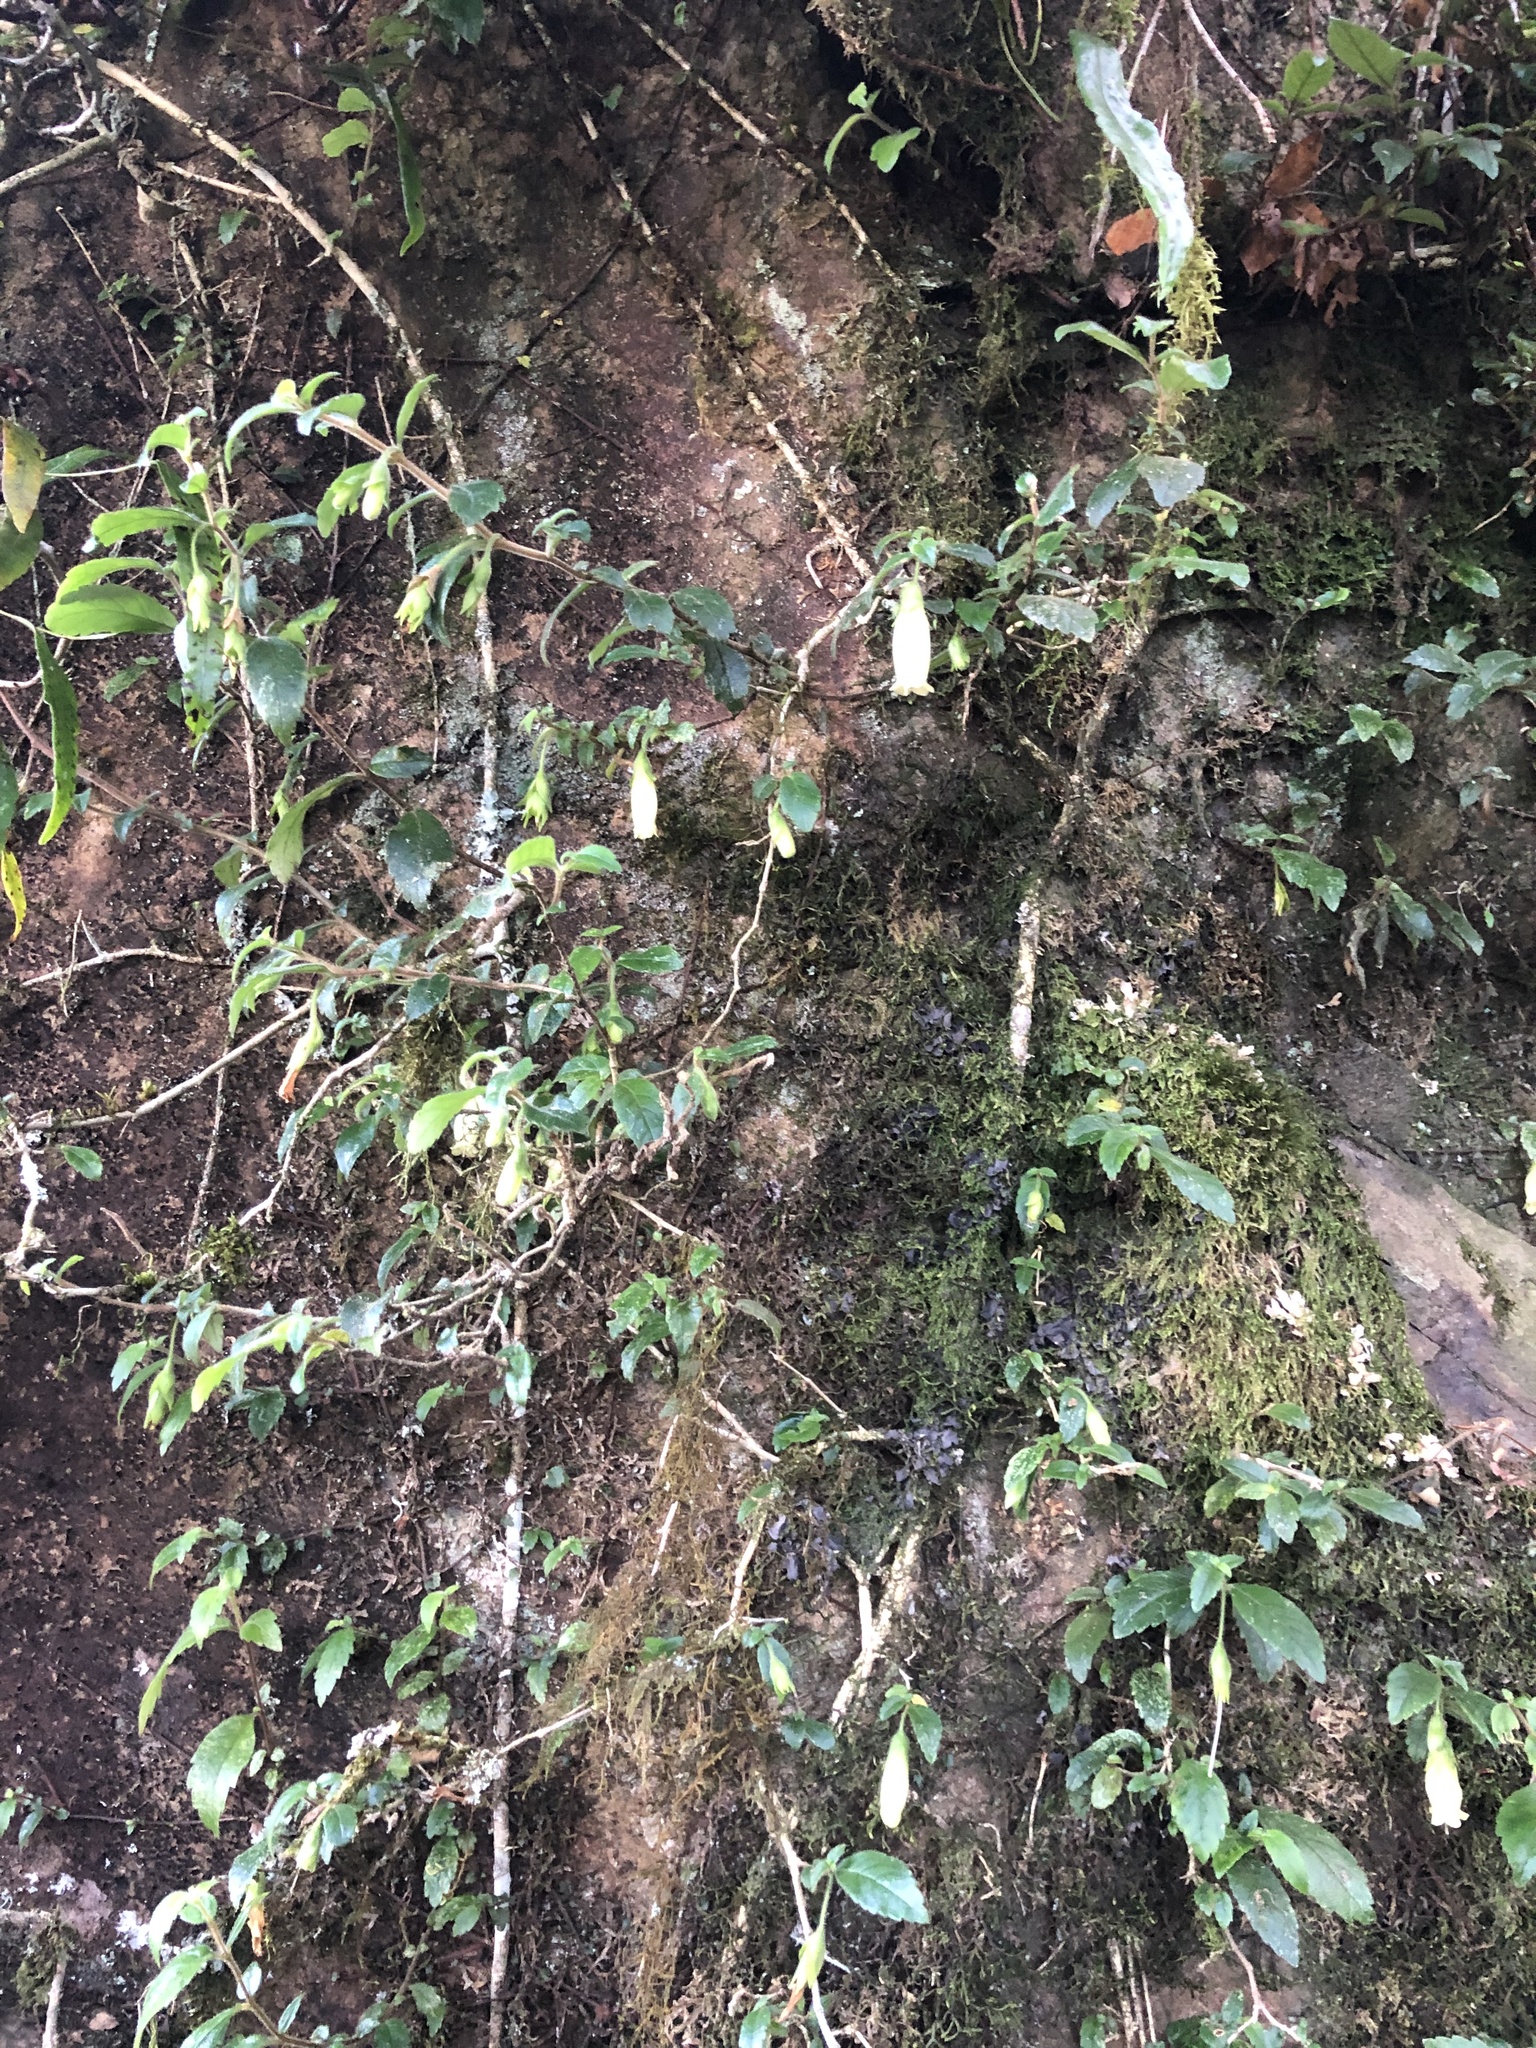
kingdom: Plantae
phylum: Tracheophyta
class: Magnoliopsida
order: Lamiales
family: Gesneriaceae
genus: Fieldia
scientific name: Fieldia australis
